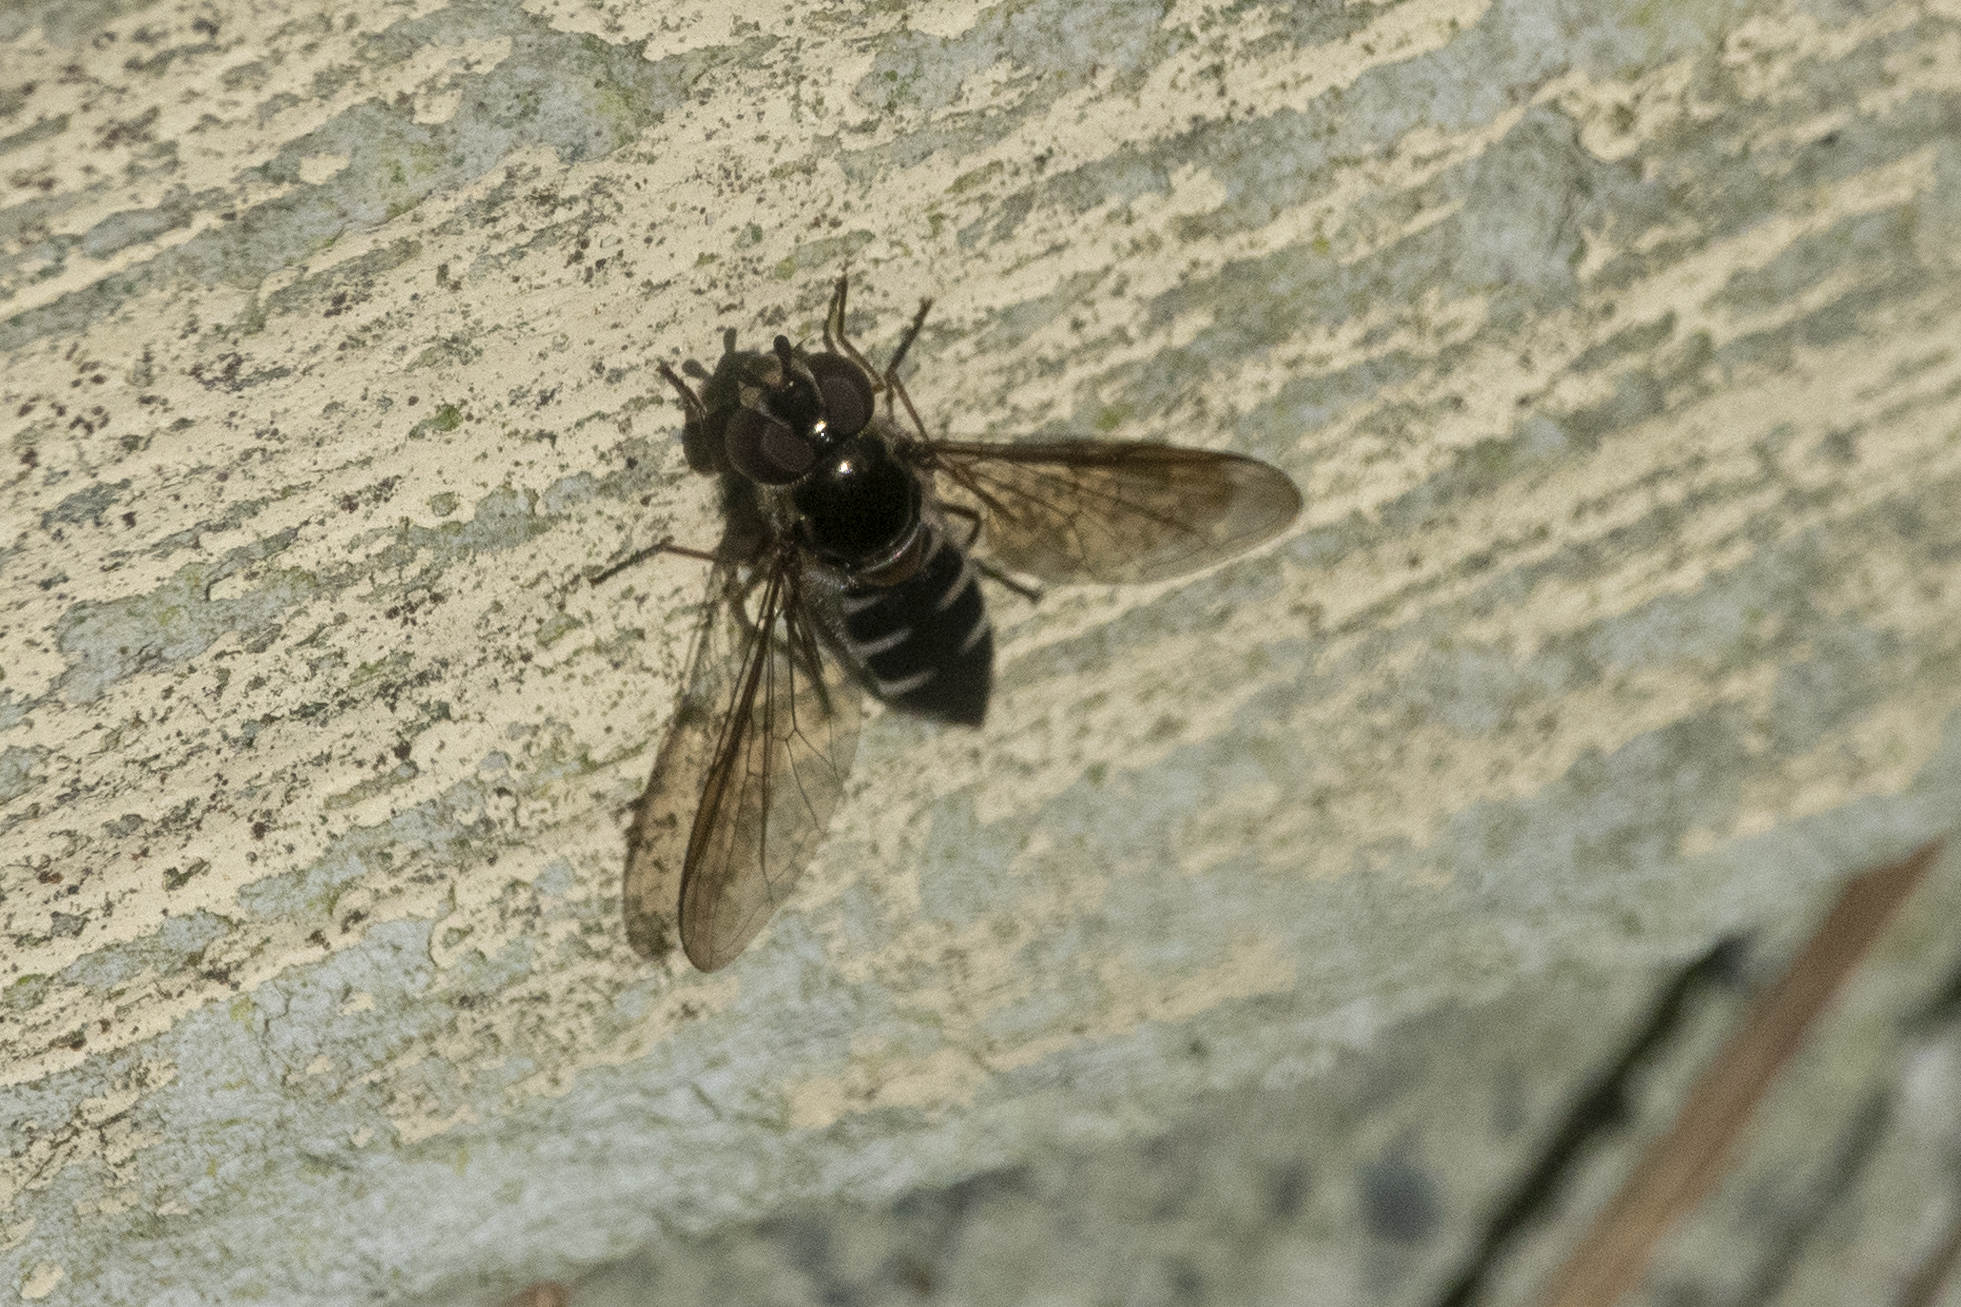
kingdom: Animalia
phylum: Arthropoda
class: Insecta
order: Diptera
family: Syrphidae
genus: Melangyna
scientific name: Melangyna novaezelandiae
